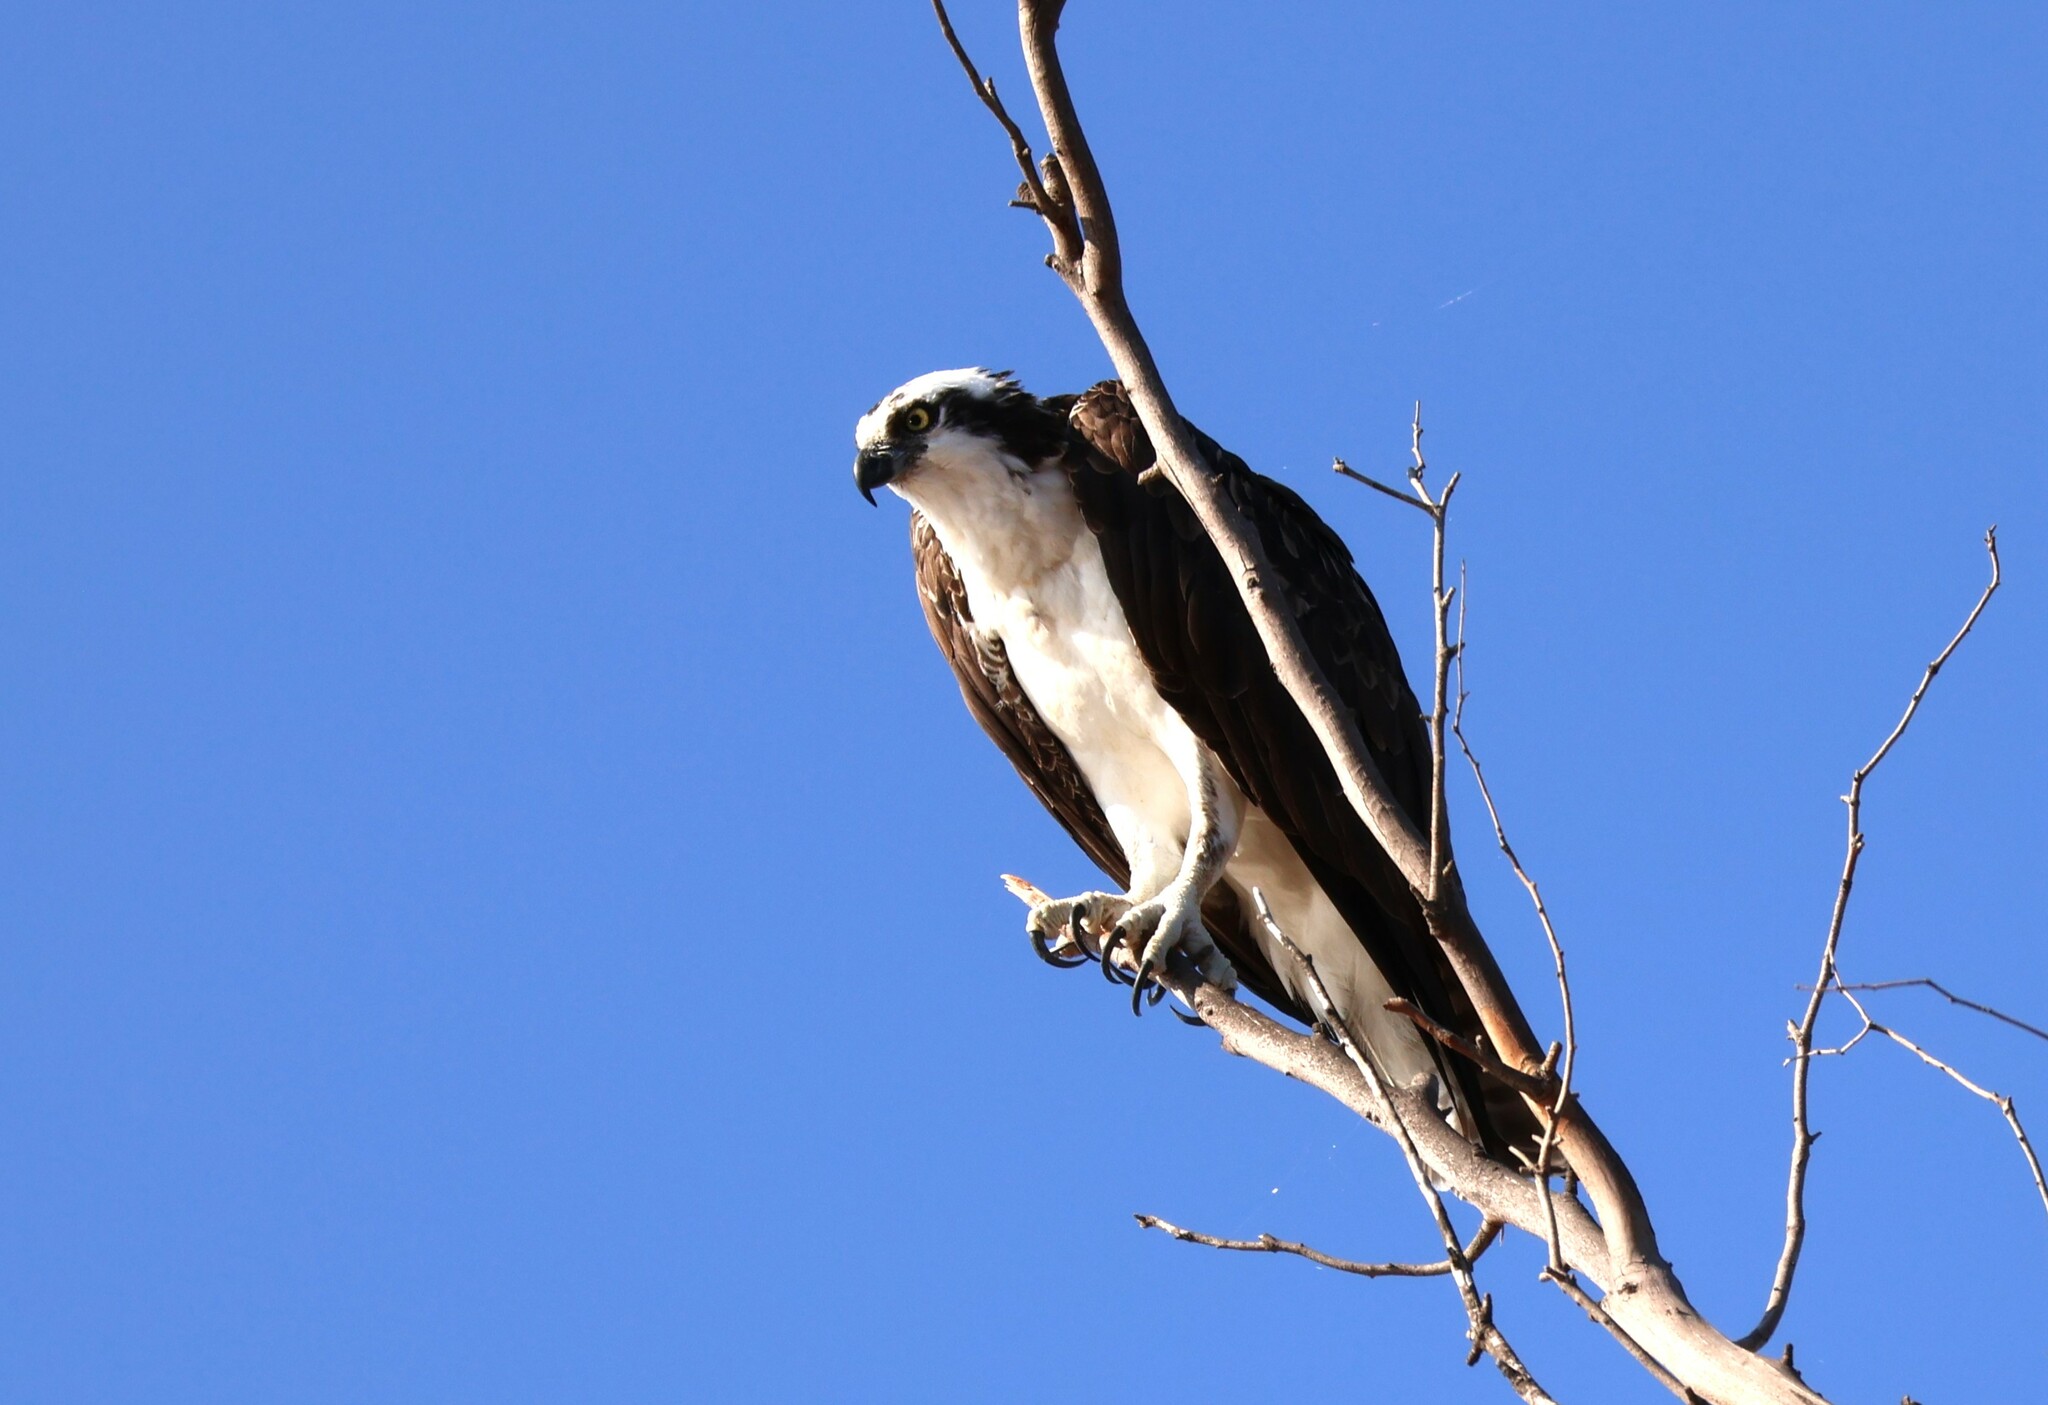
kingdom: Animalia
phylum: Chordata
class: Aves
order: Accipitriformes
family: Pandionidae
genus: Pandion
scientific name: Pandion haliaetus
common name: Osprey
